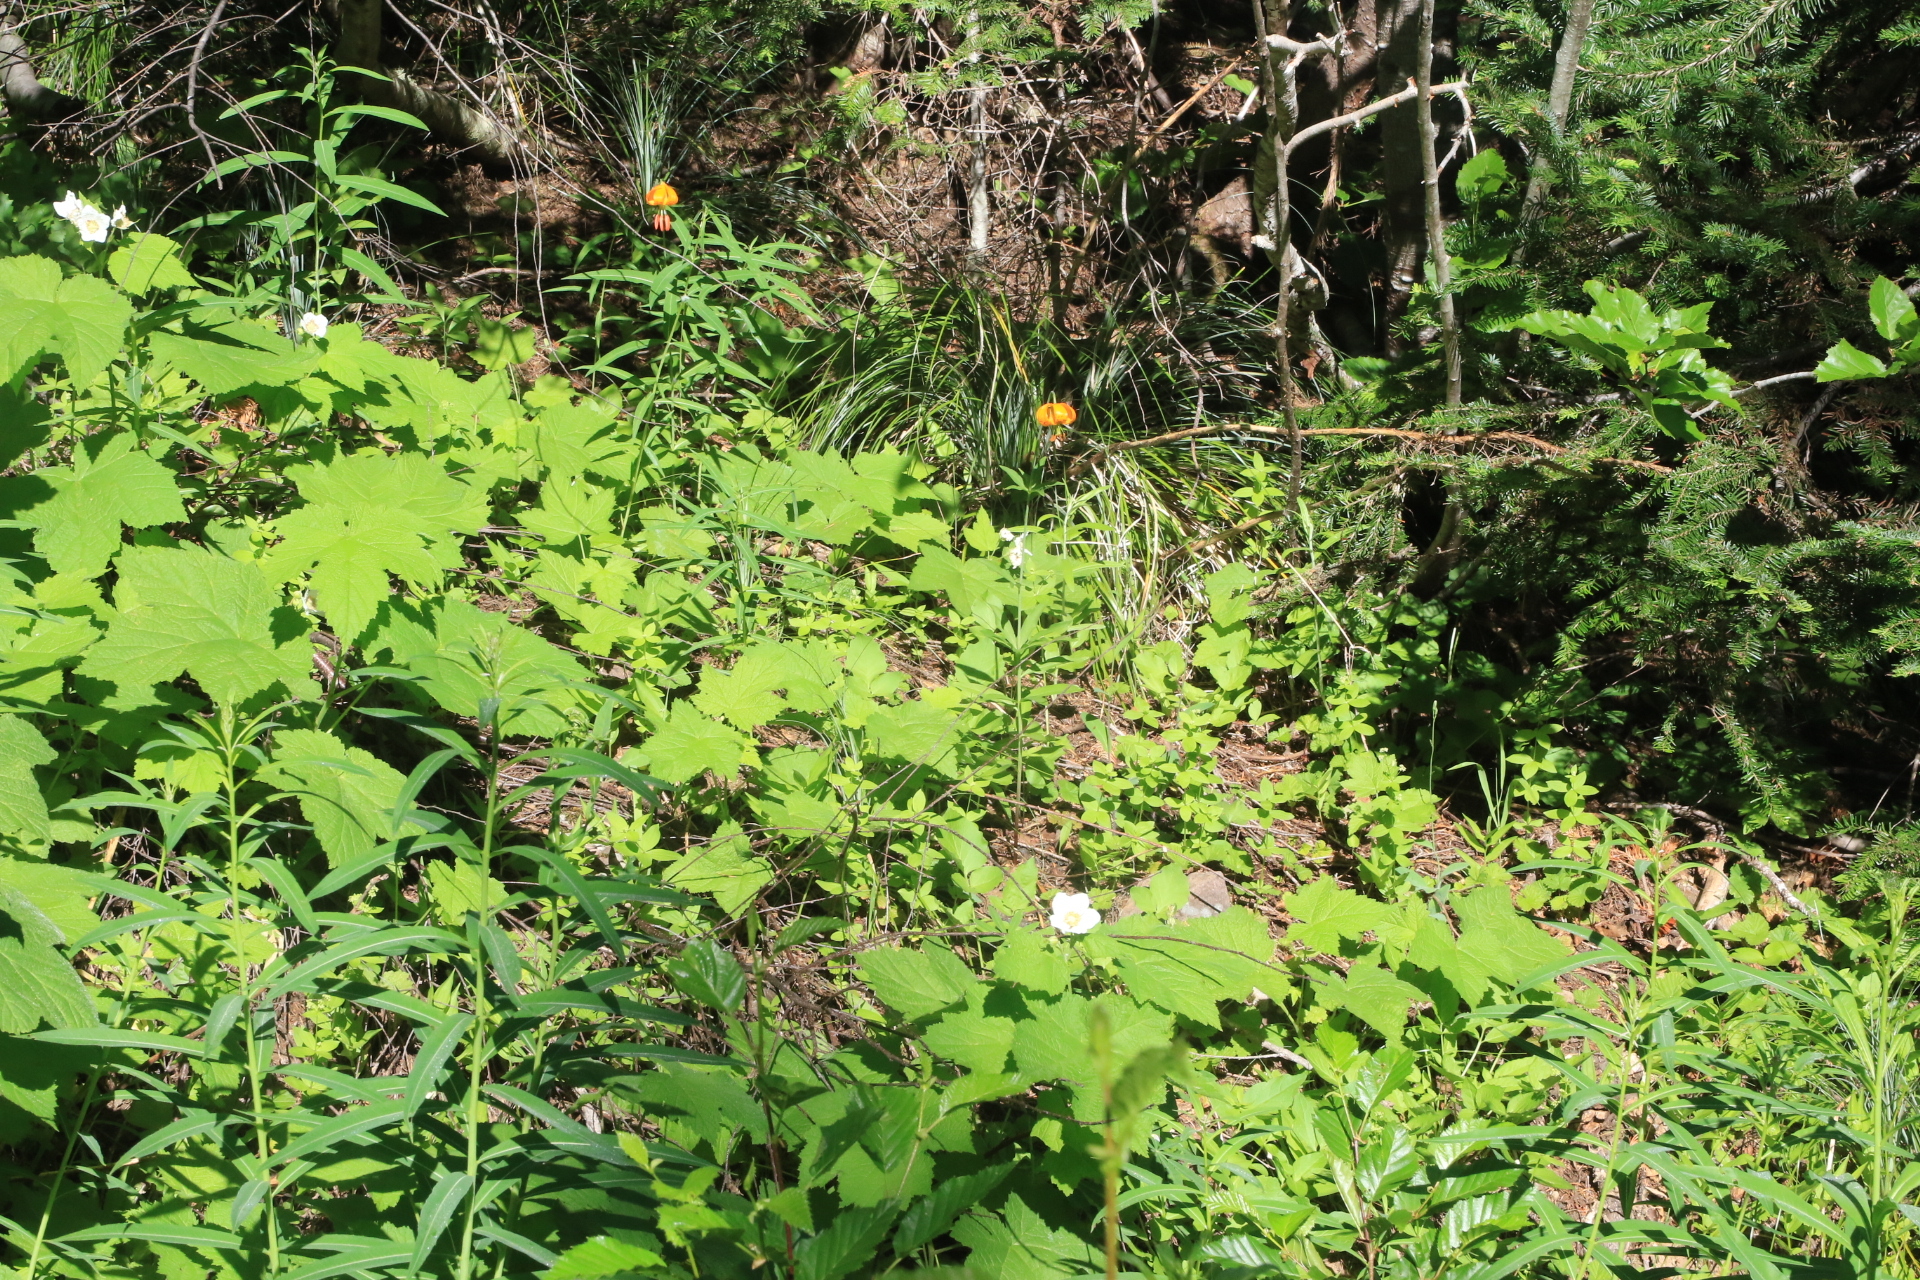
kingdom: Plantae
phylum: Tracheophyta
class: Liliopsida
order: Liliales
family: Liliaceae
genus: Lilium
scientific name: Lilium columbianum
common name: Columbia lily
